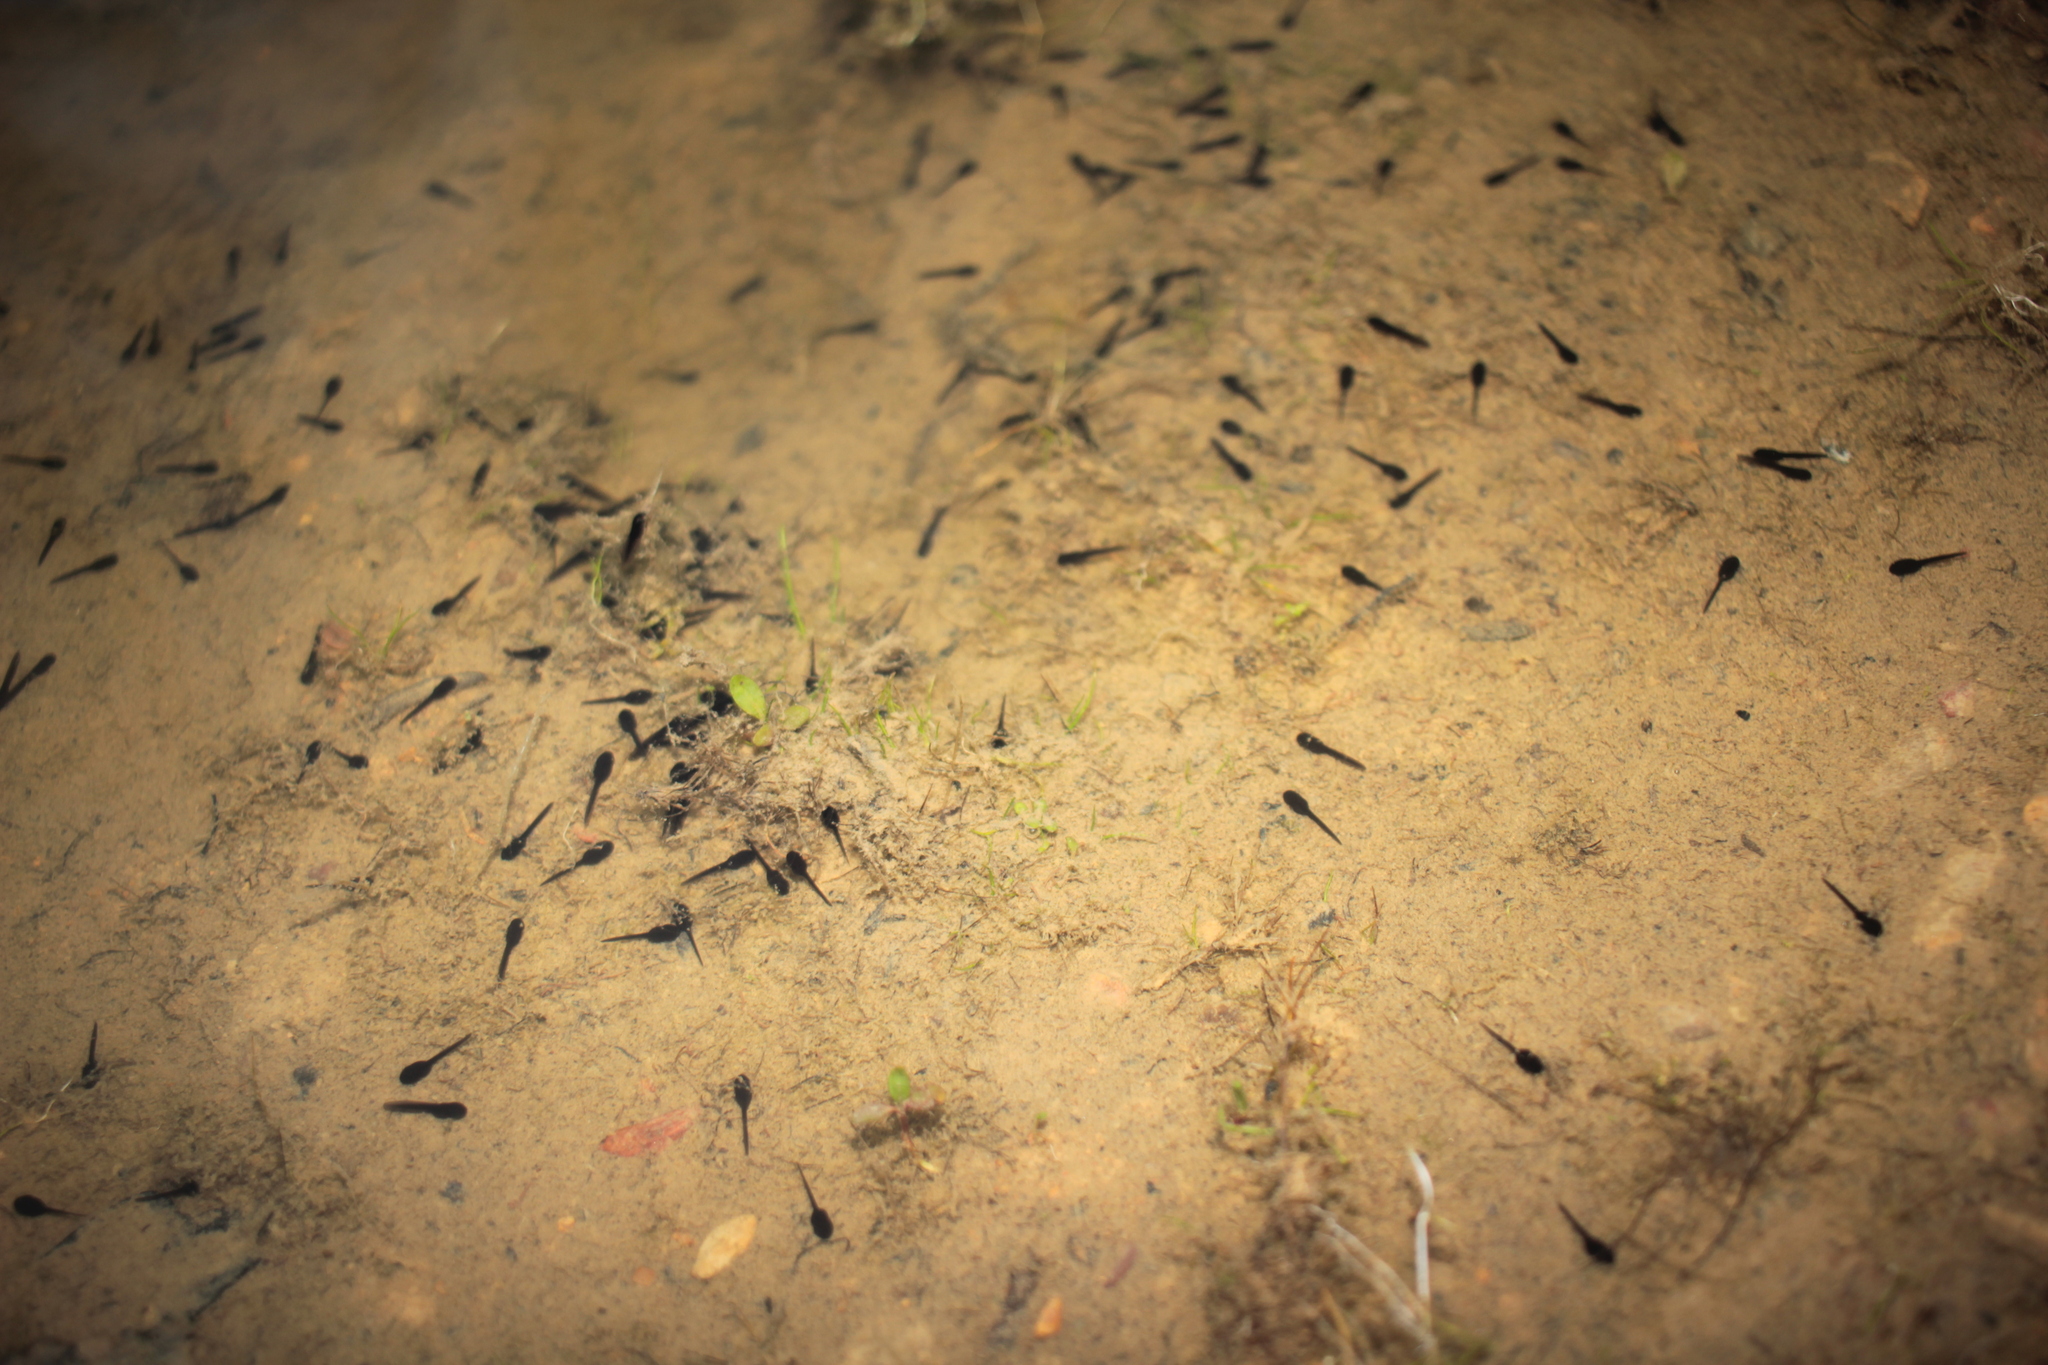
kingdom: Animalia
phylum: Chordata
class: Amphibia
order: Anura
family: Bufonidae
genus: Anaxyrus
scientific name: Anaxyrus americanus
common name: American toad
